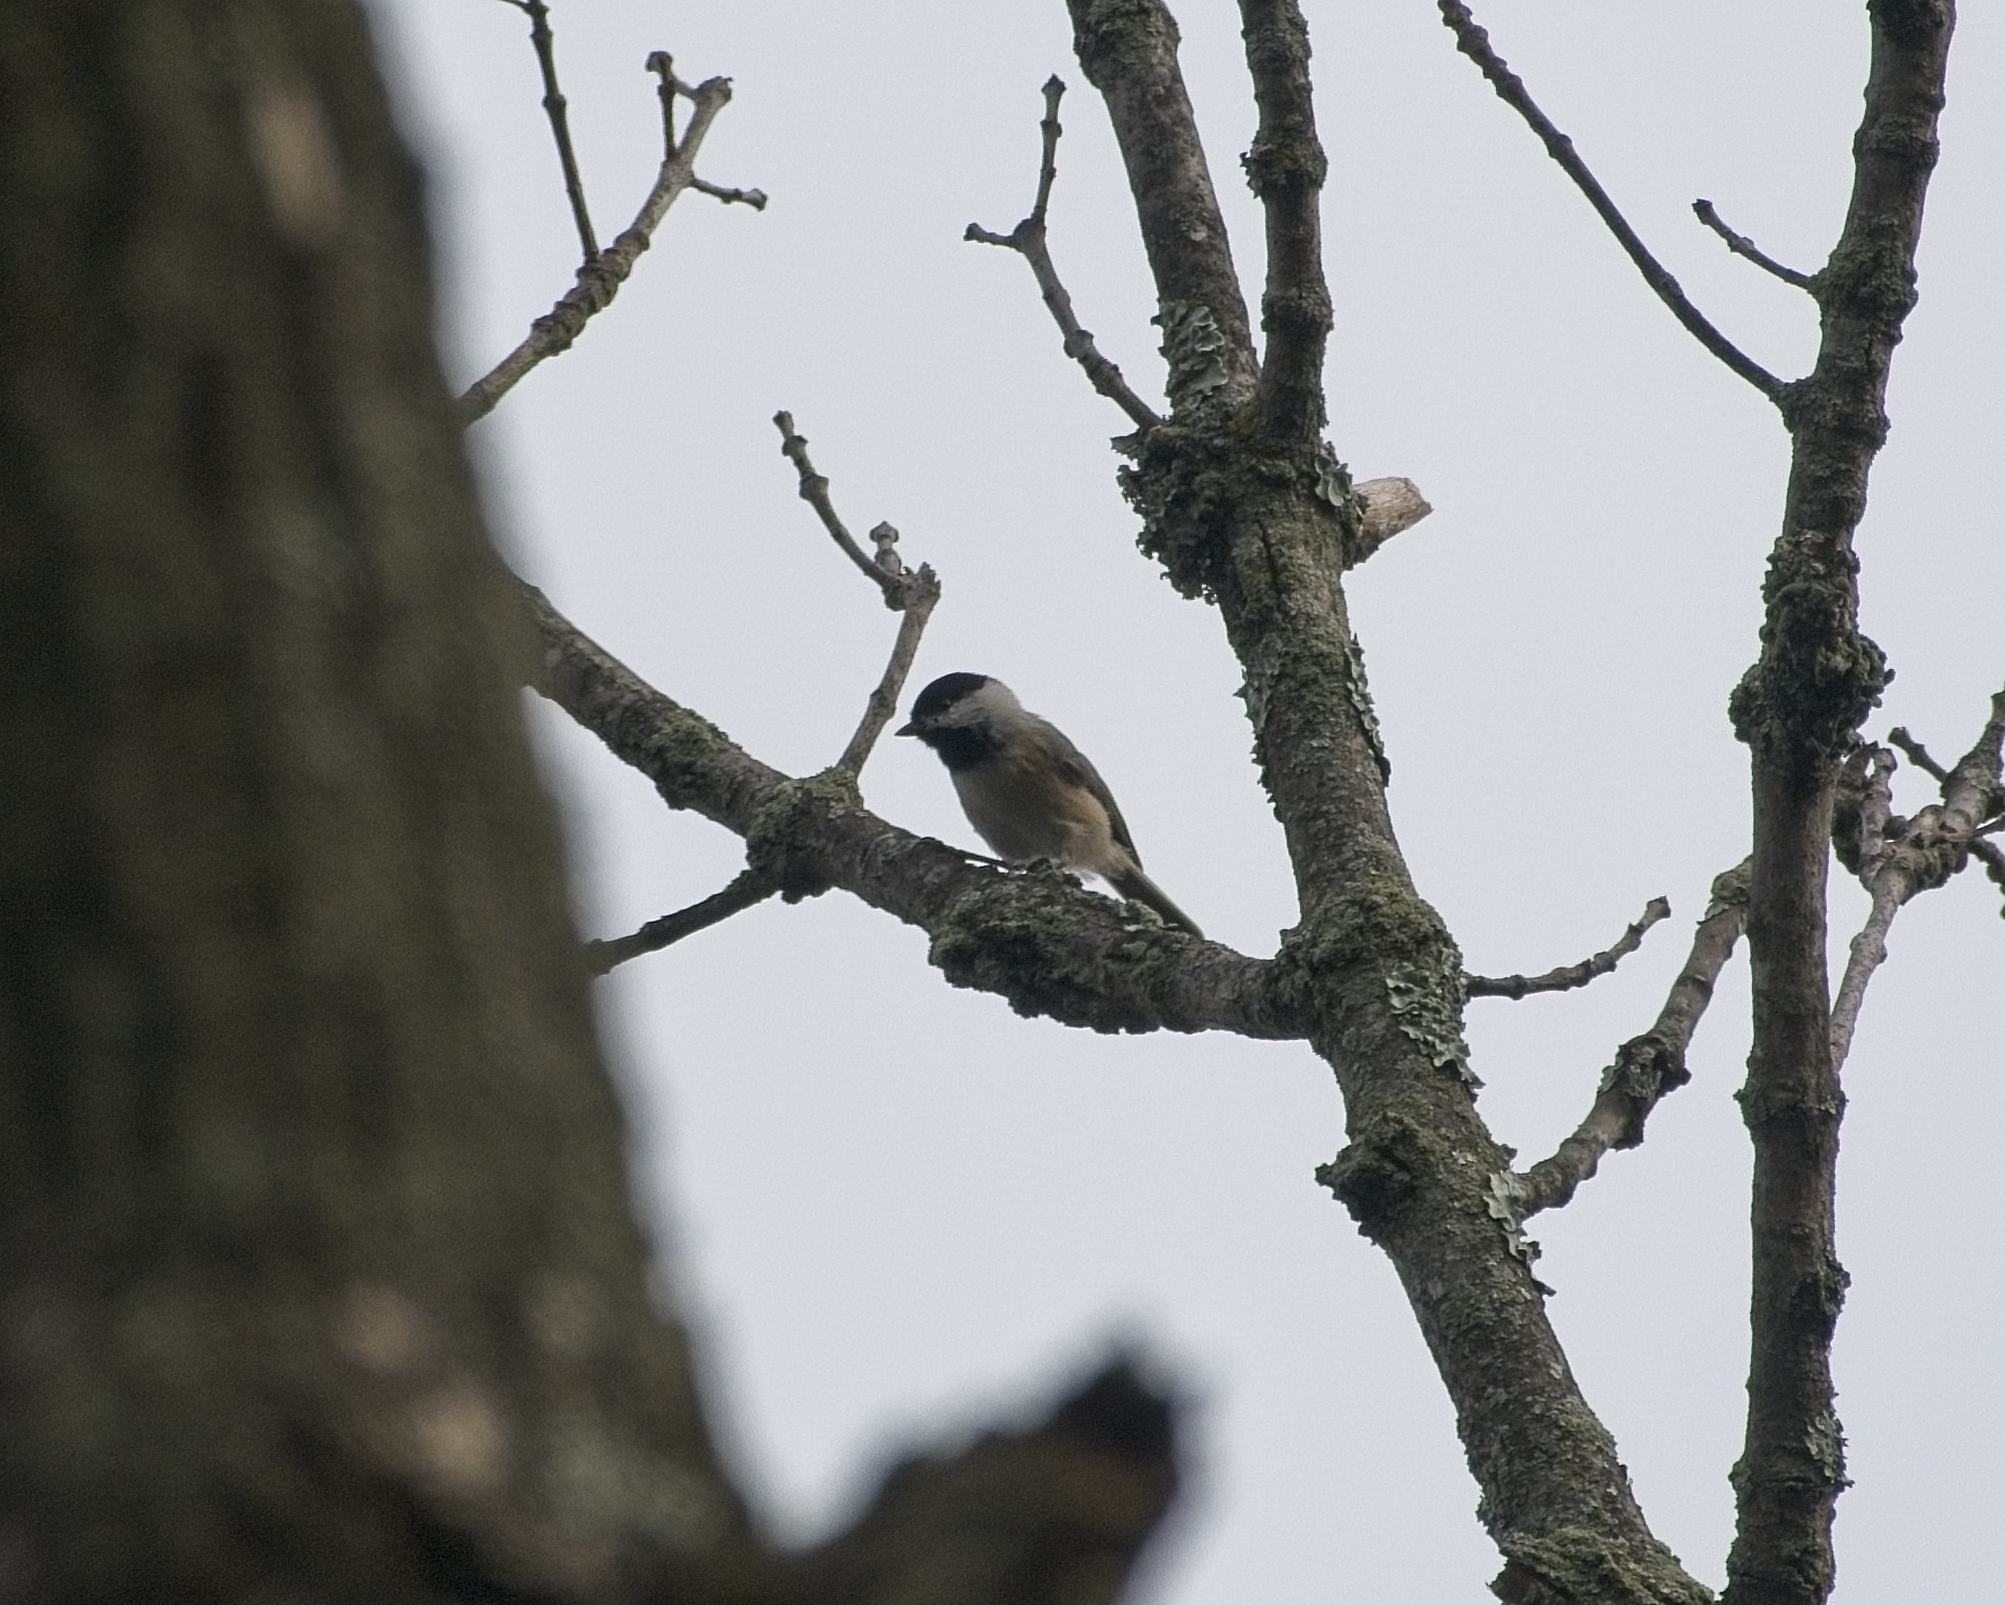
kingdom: Animalia
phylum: Chordata
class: Aves
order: Passeriformes
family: Paridae
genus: Poecile
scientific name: Poecile carolinensis
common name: Carolina chickadee
